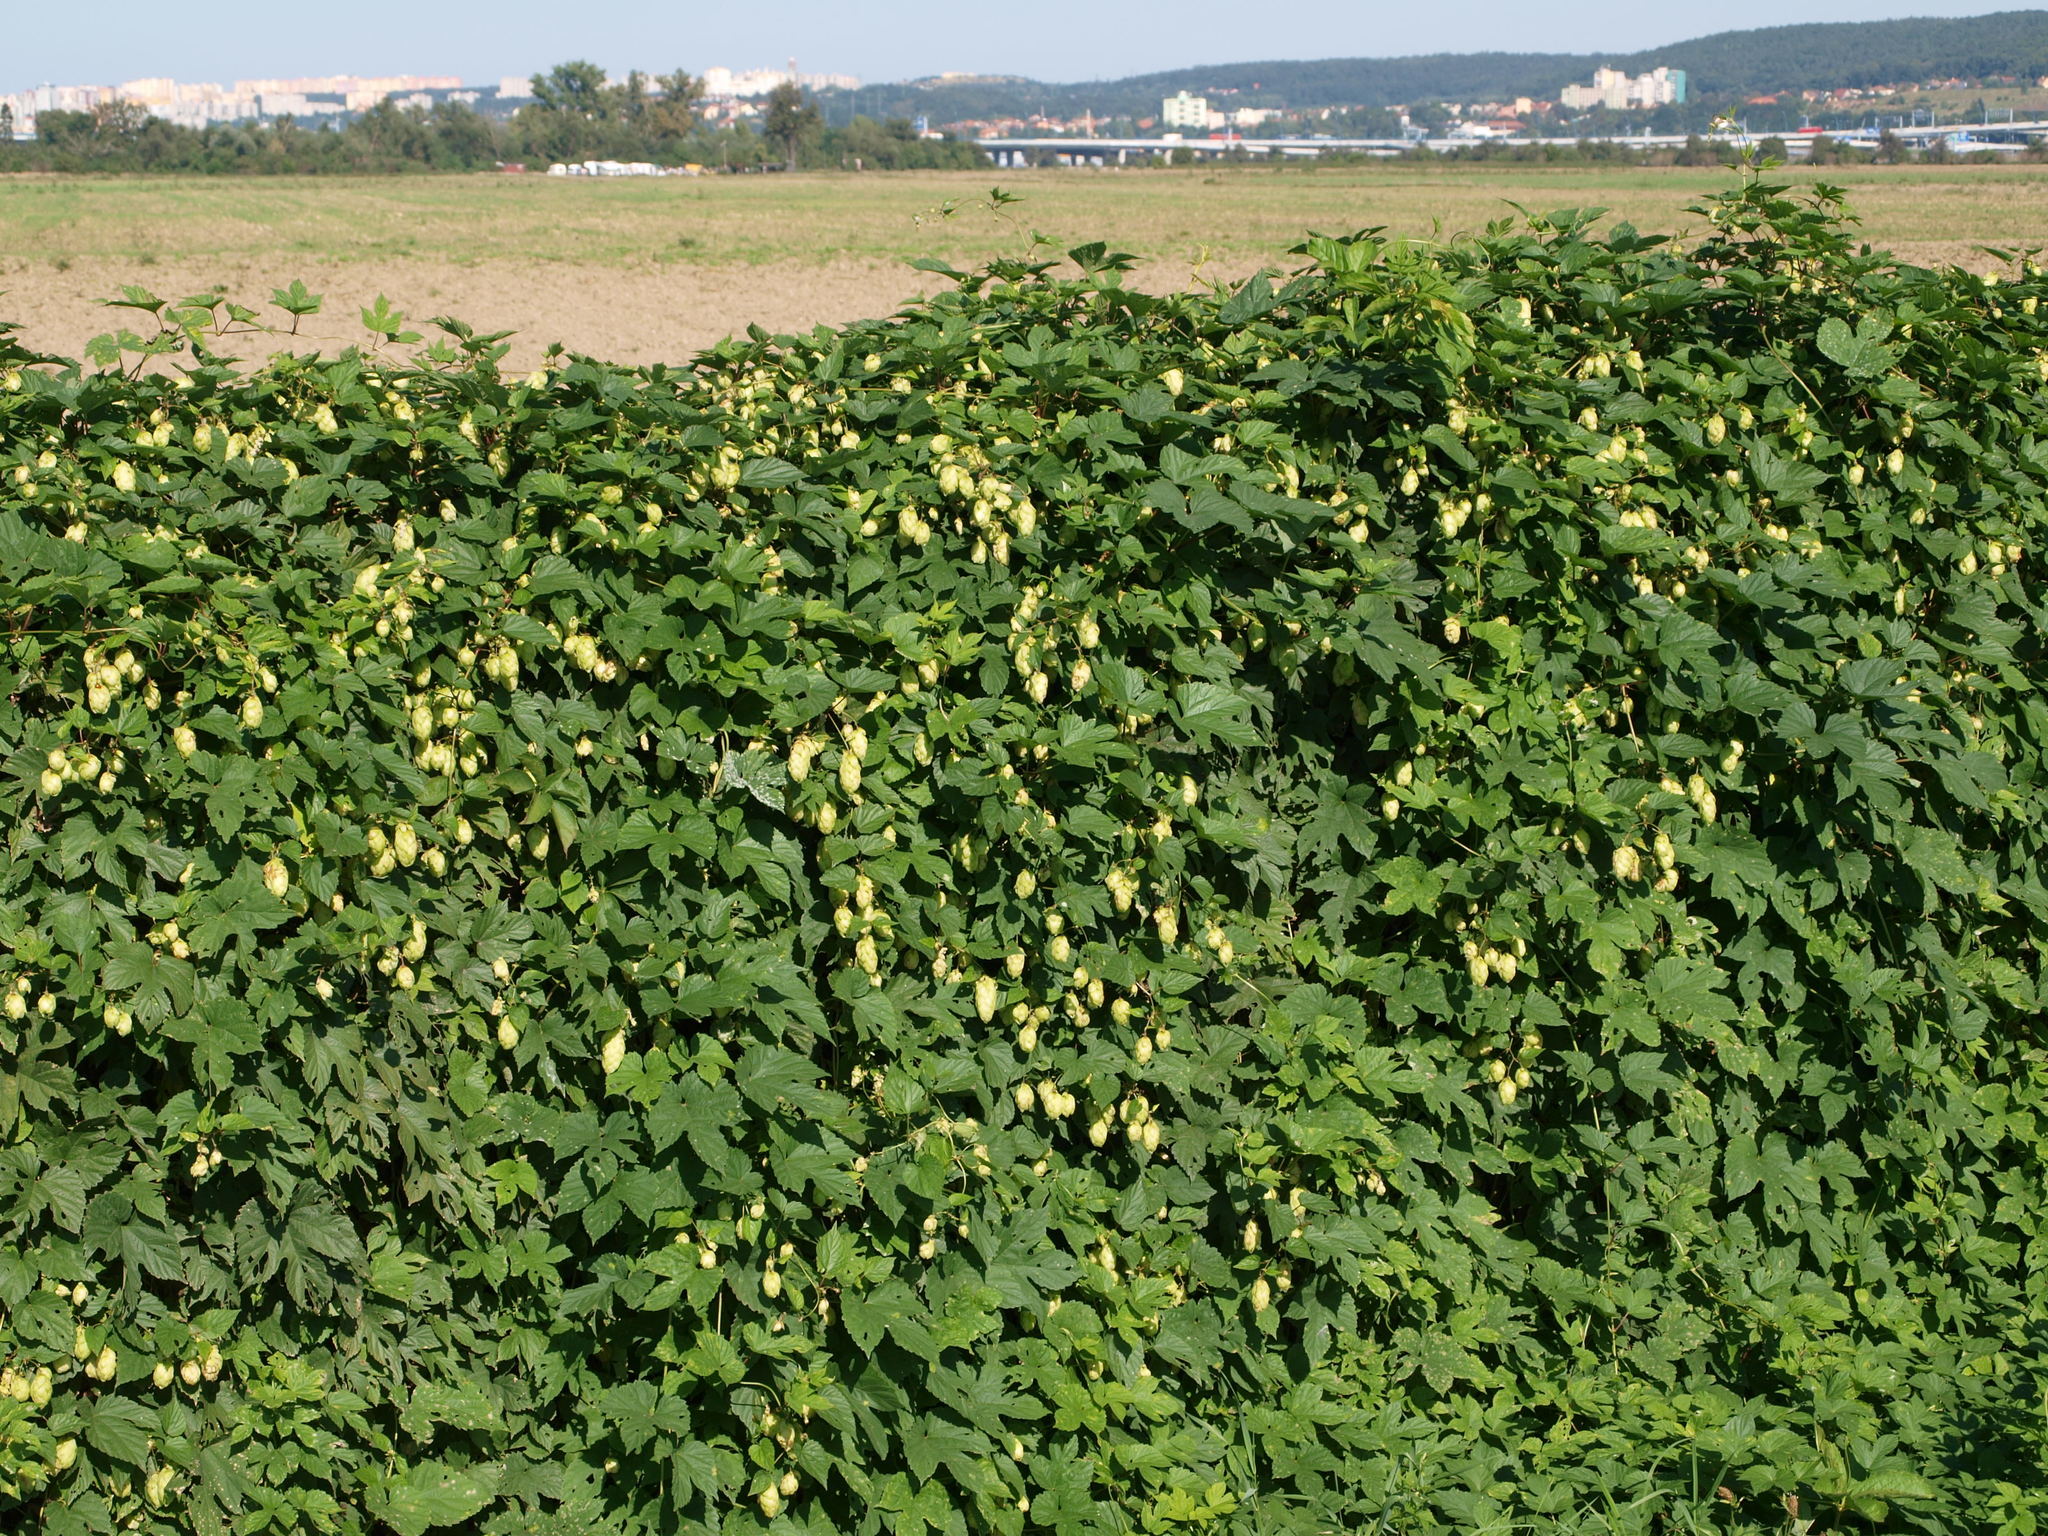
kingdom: Plantae
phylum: Tracheophyta
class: Magnoliopsida
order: Rosales
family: Cannabaceae
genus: Humulus
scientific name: Humulus lupulus
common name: Hop
